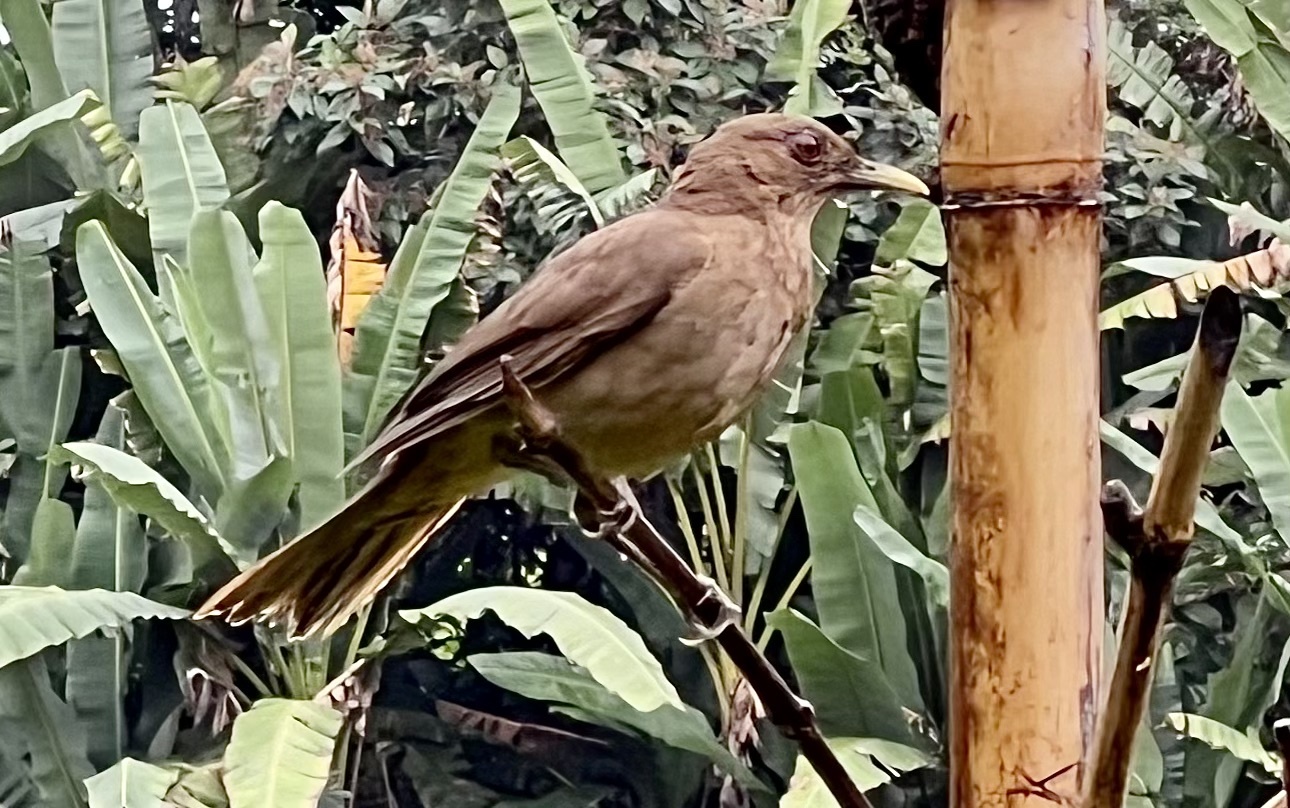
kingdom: Animalia
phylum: Chordata
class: Aves
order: Passeriformes
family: Turdidae
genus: Turdus
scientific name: Turdus grayi
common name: Clay-colored thrush
